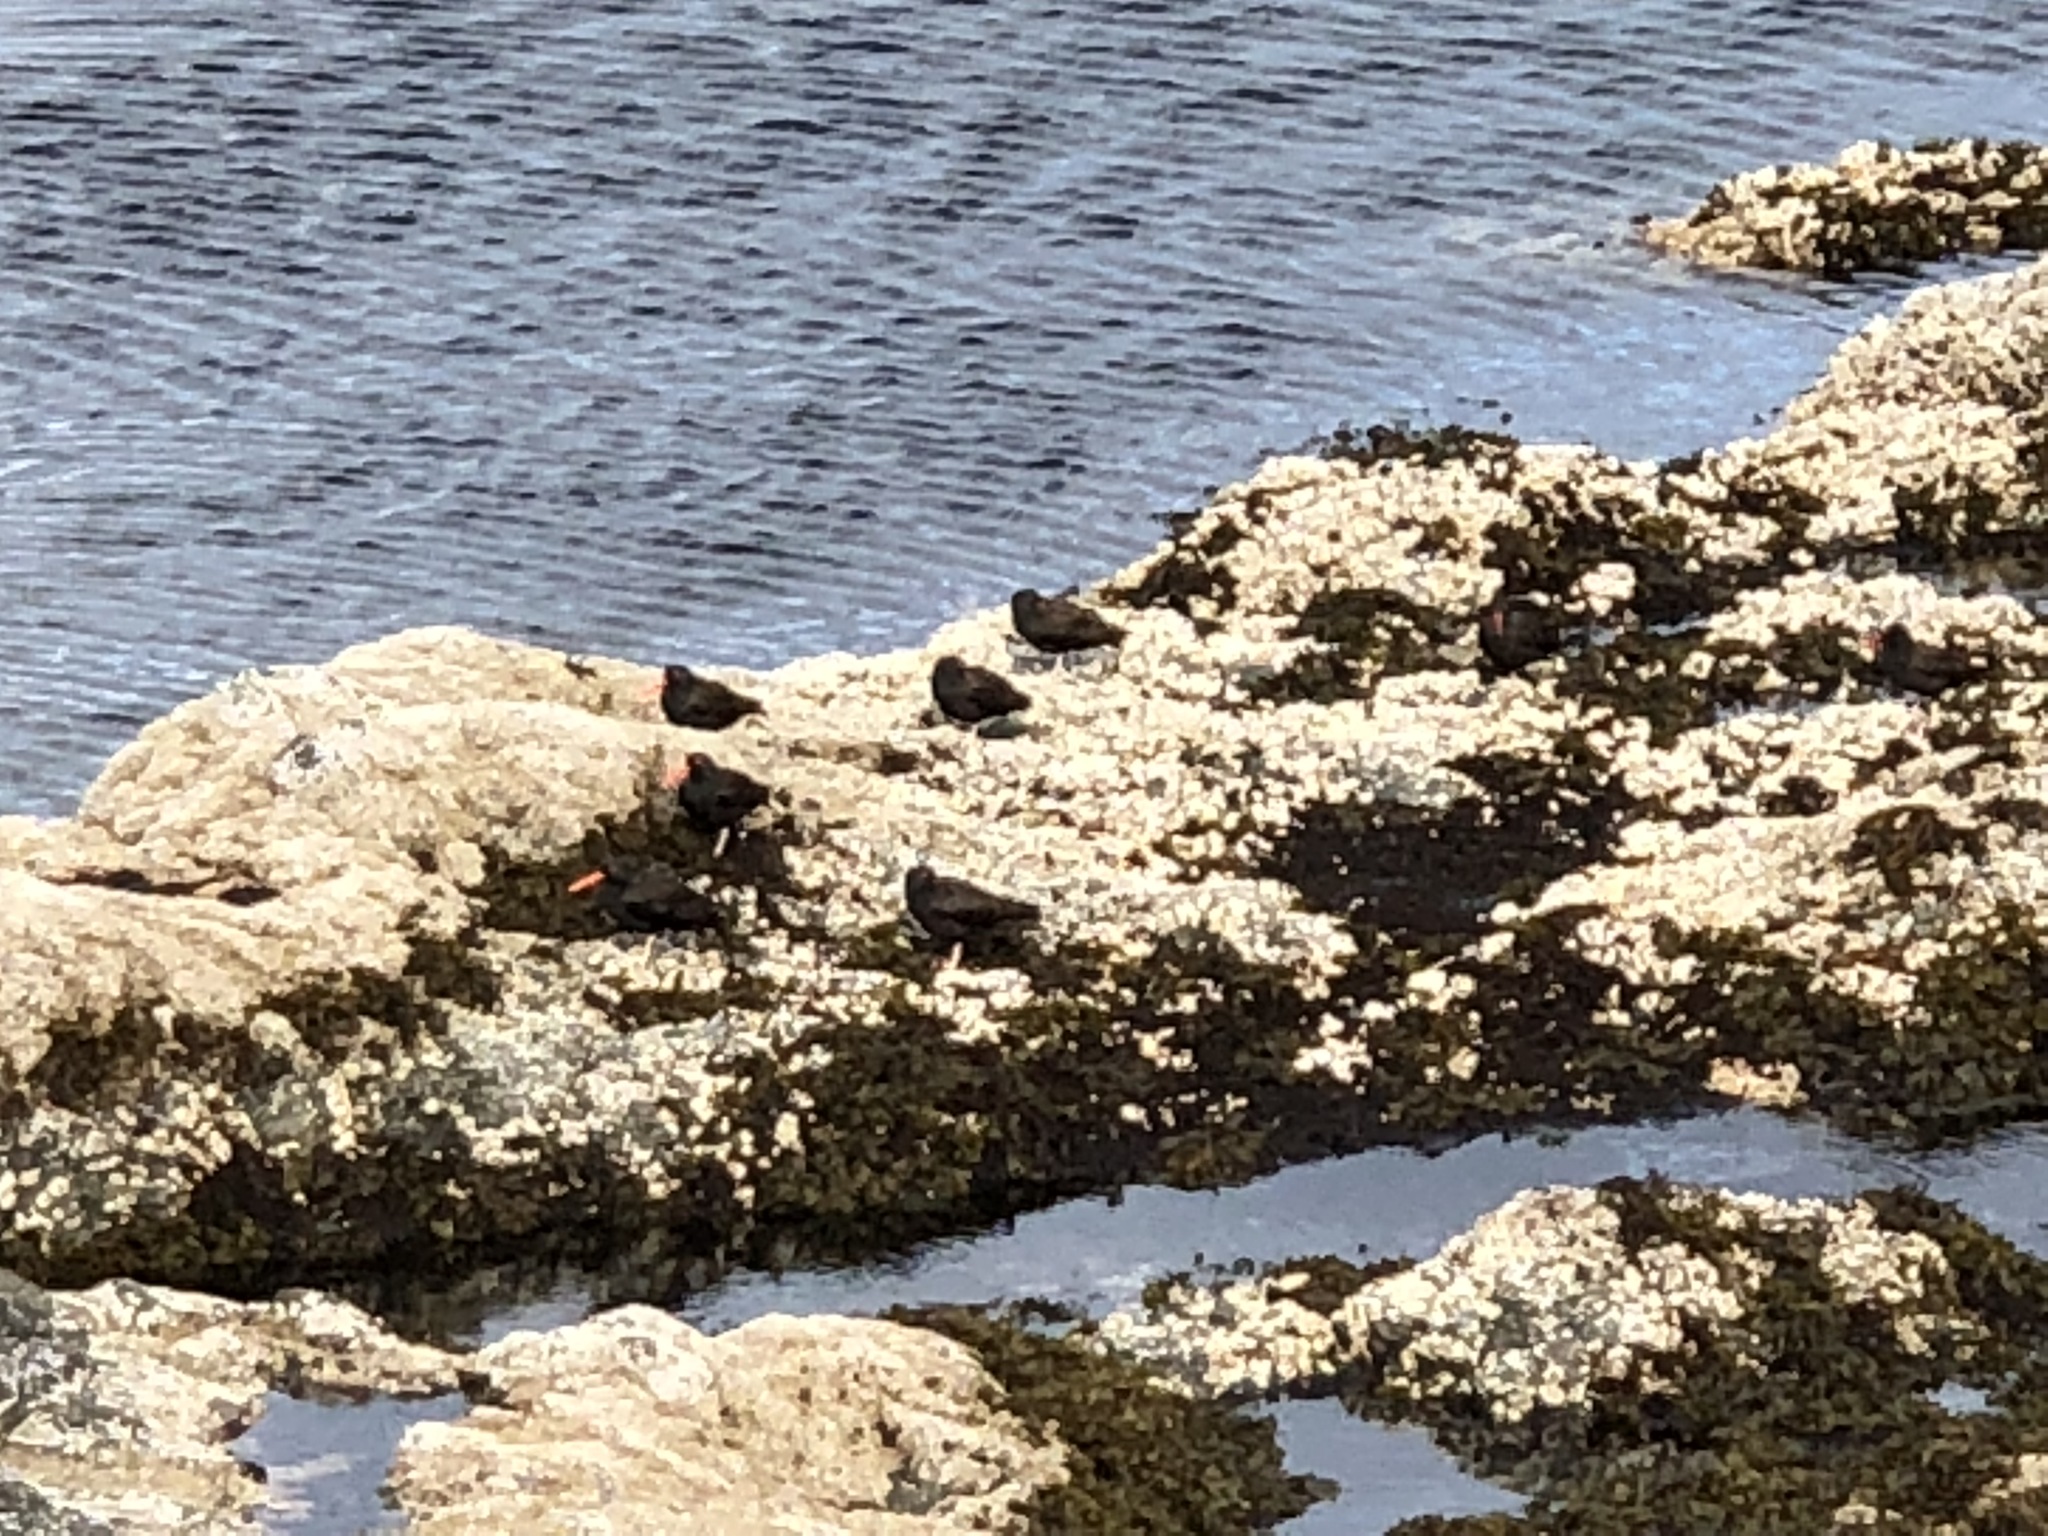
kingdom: Animalia
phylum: Chordata
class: Aves
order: Charadriiformes
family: Haematopodidae
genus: Haematopus
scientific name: Haematopus bachmani
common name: Black oystercatcher
